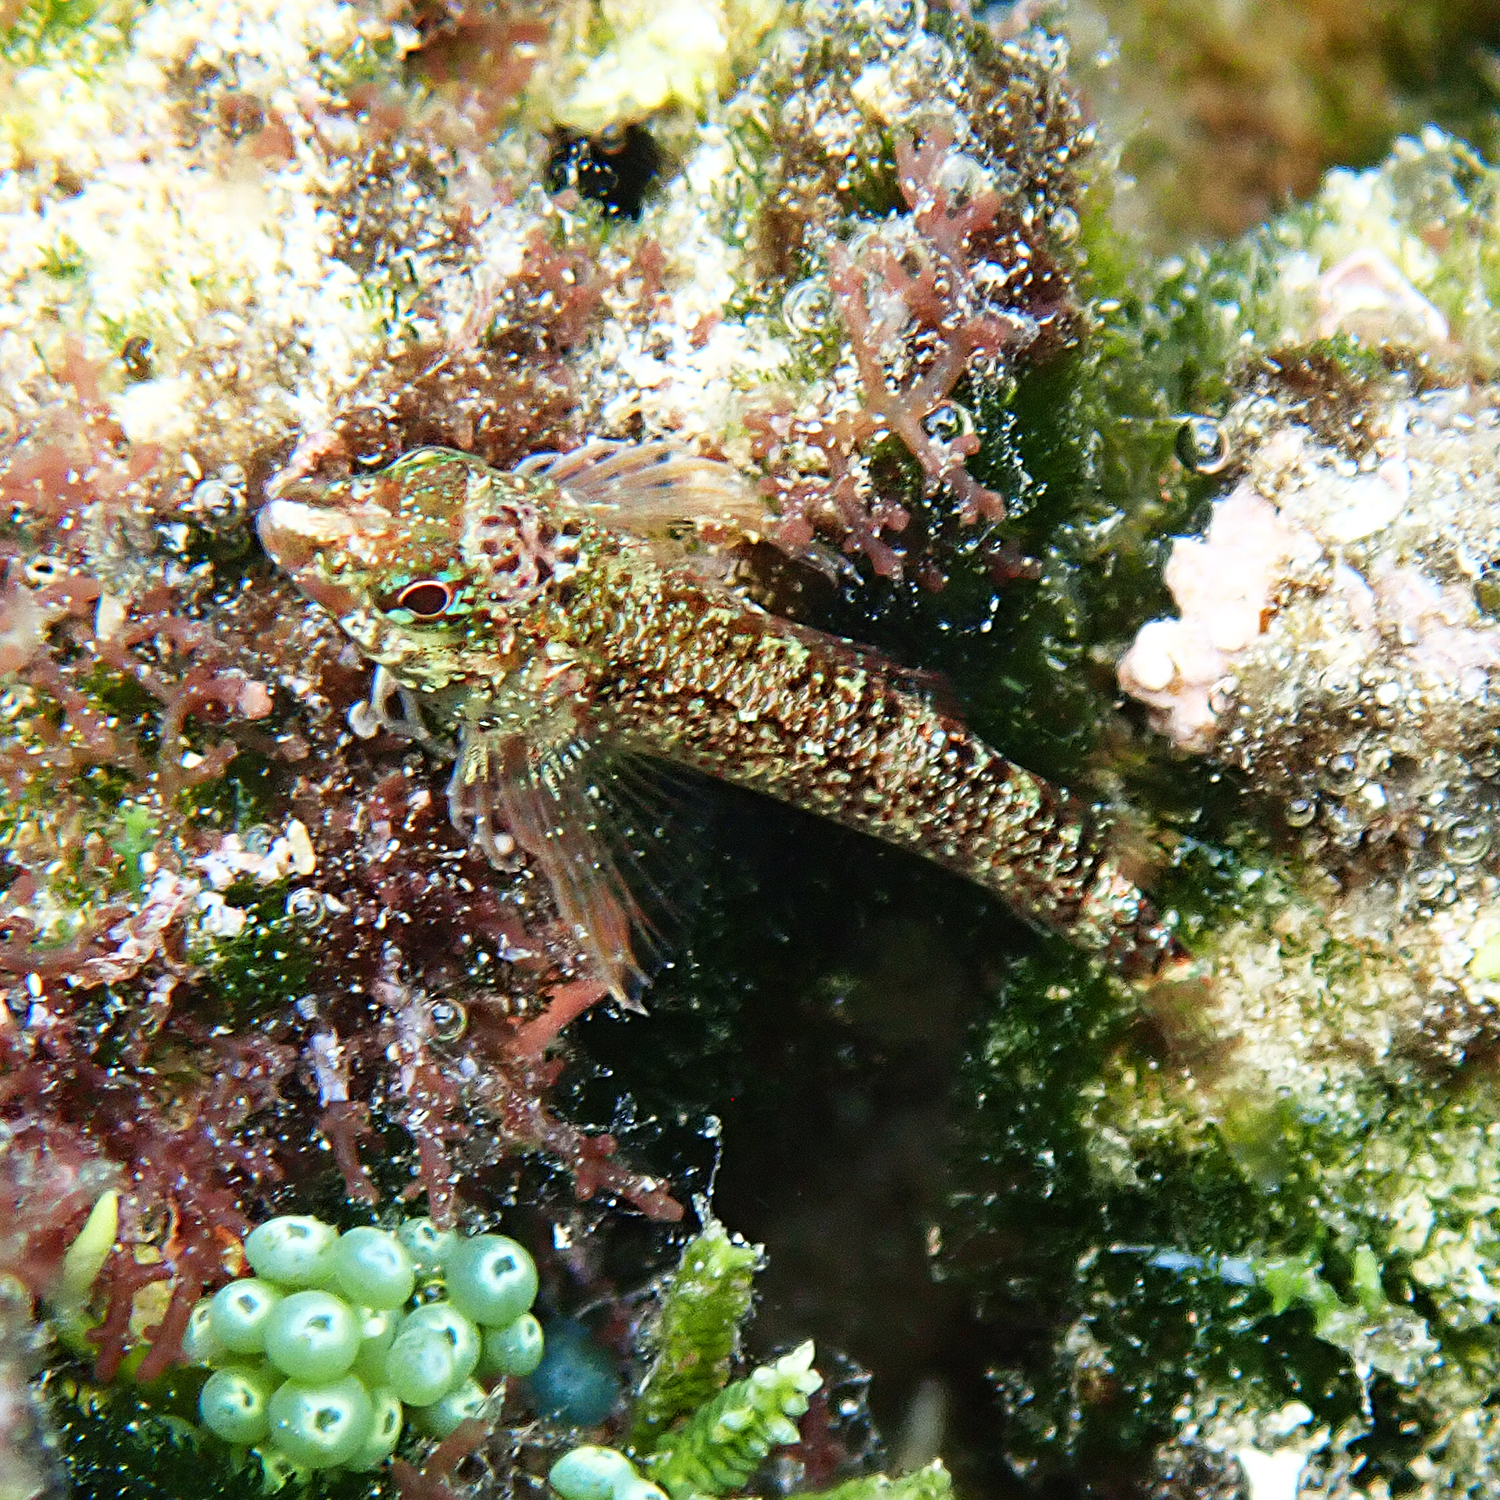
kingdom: Animalia
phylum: Chordata
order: Perciformes
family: Tripterygiidae
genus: Enneapterygius
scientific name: Enneapterygius rufopileus
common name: Lord howe black-head triplefin
